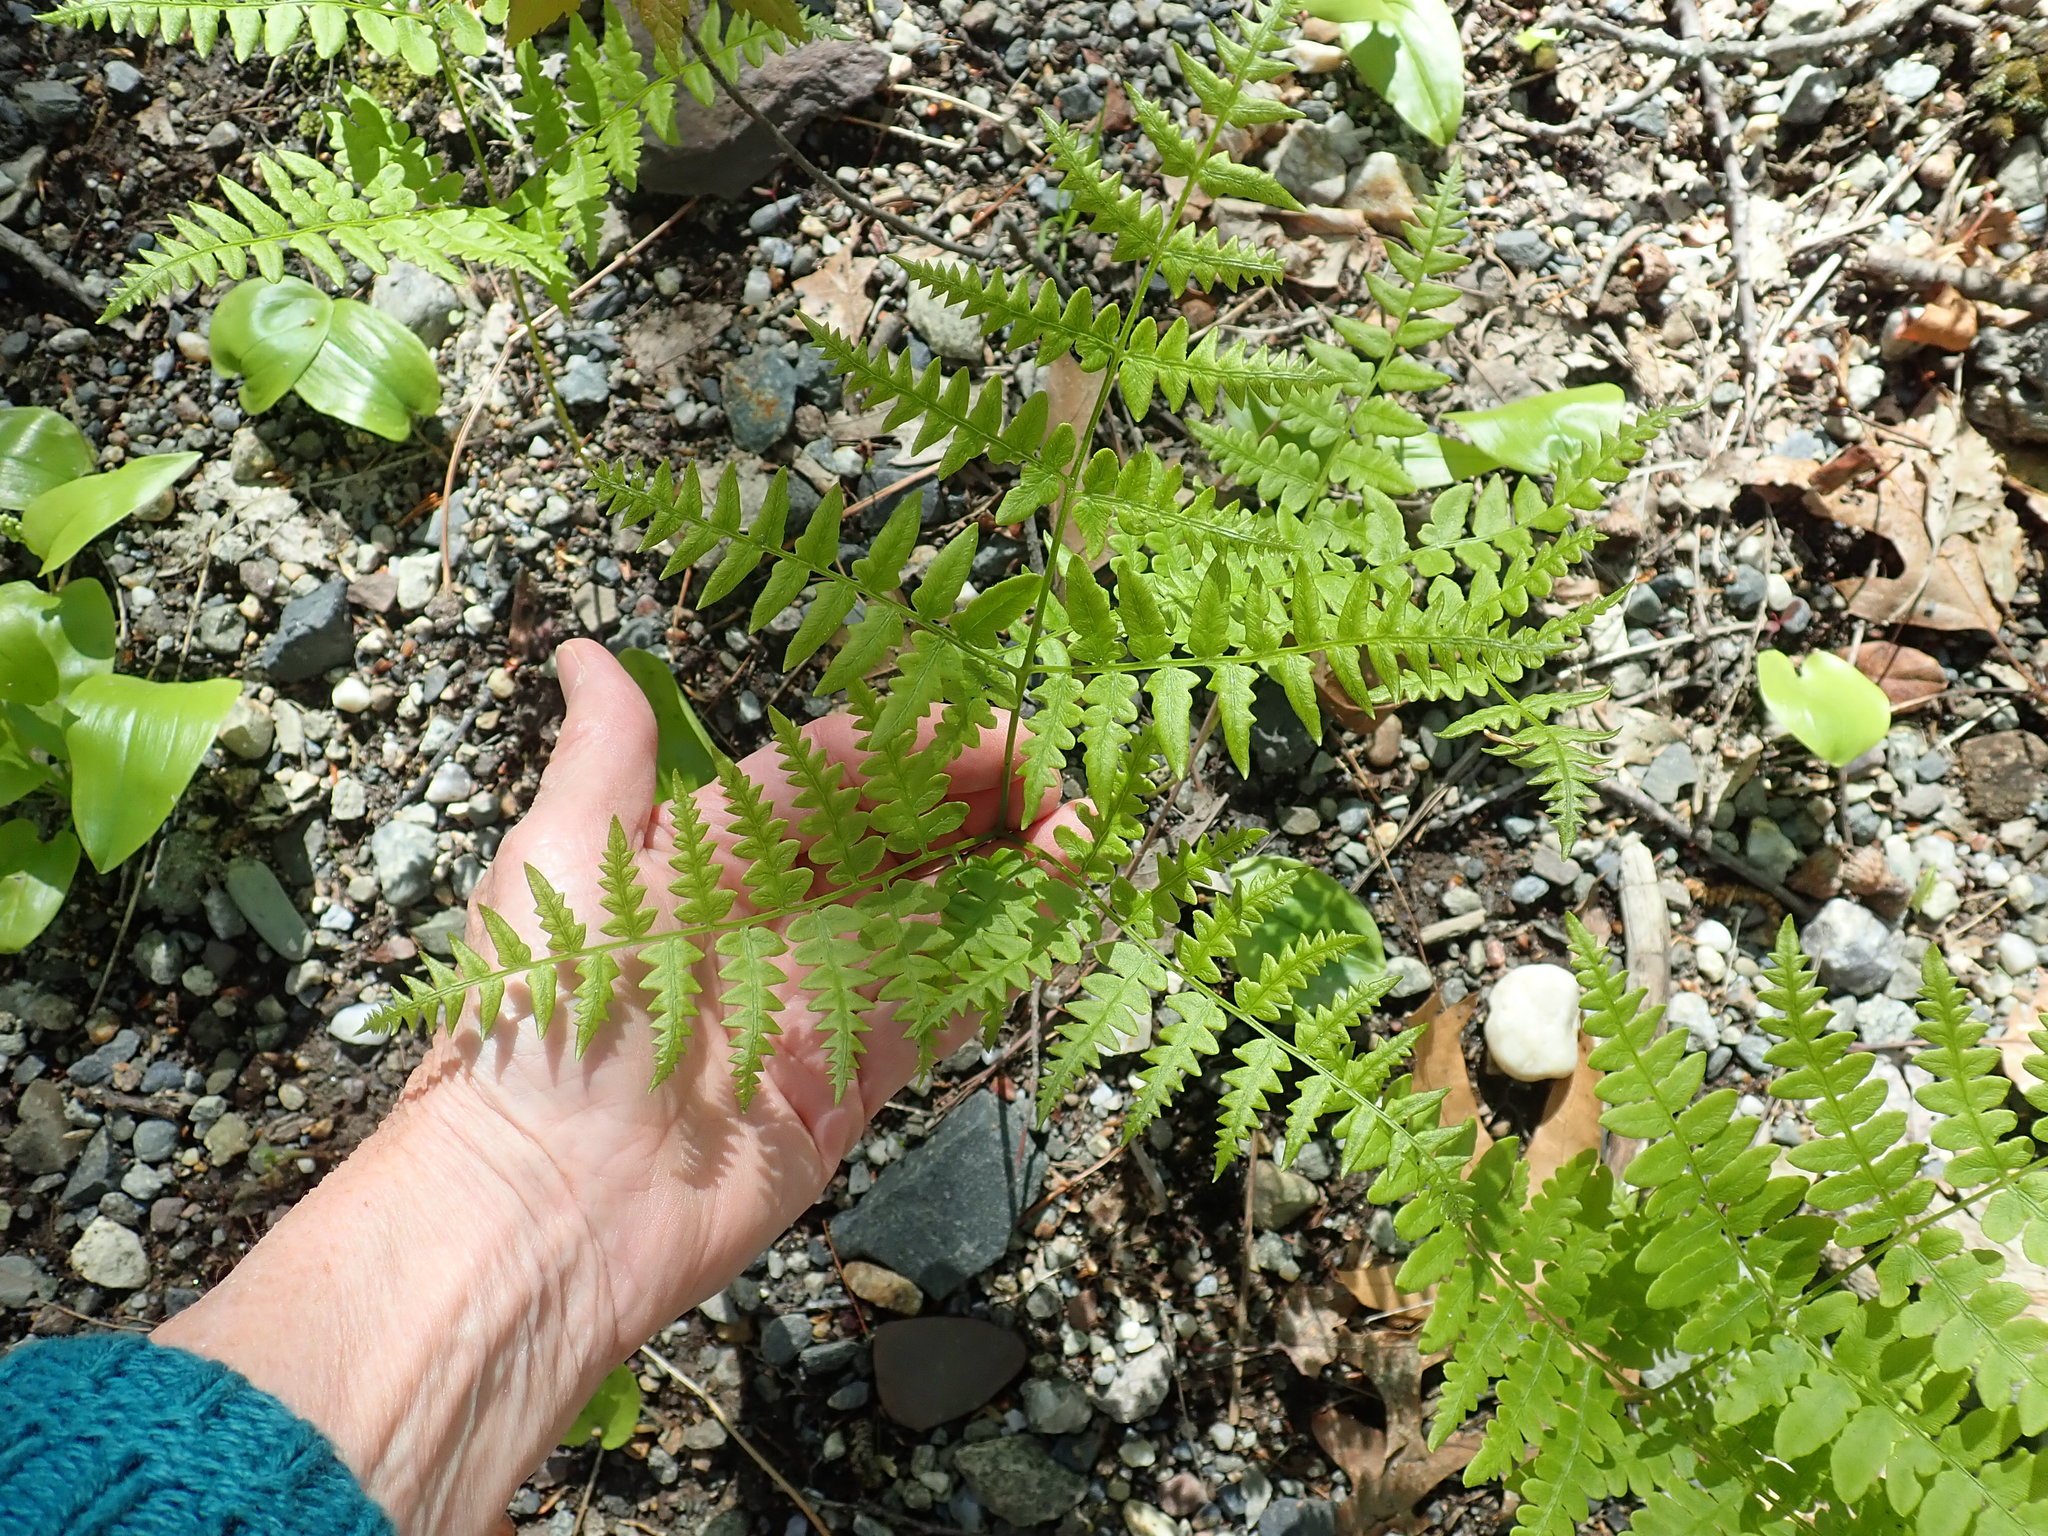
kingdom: Plantae
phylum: Tracheophyta
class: Polypodiopsida
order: Polypodiales
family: Dennstaedtiaceae
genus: Pteridium
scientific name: Pteridium aquilinum
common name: Bracken
